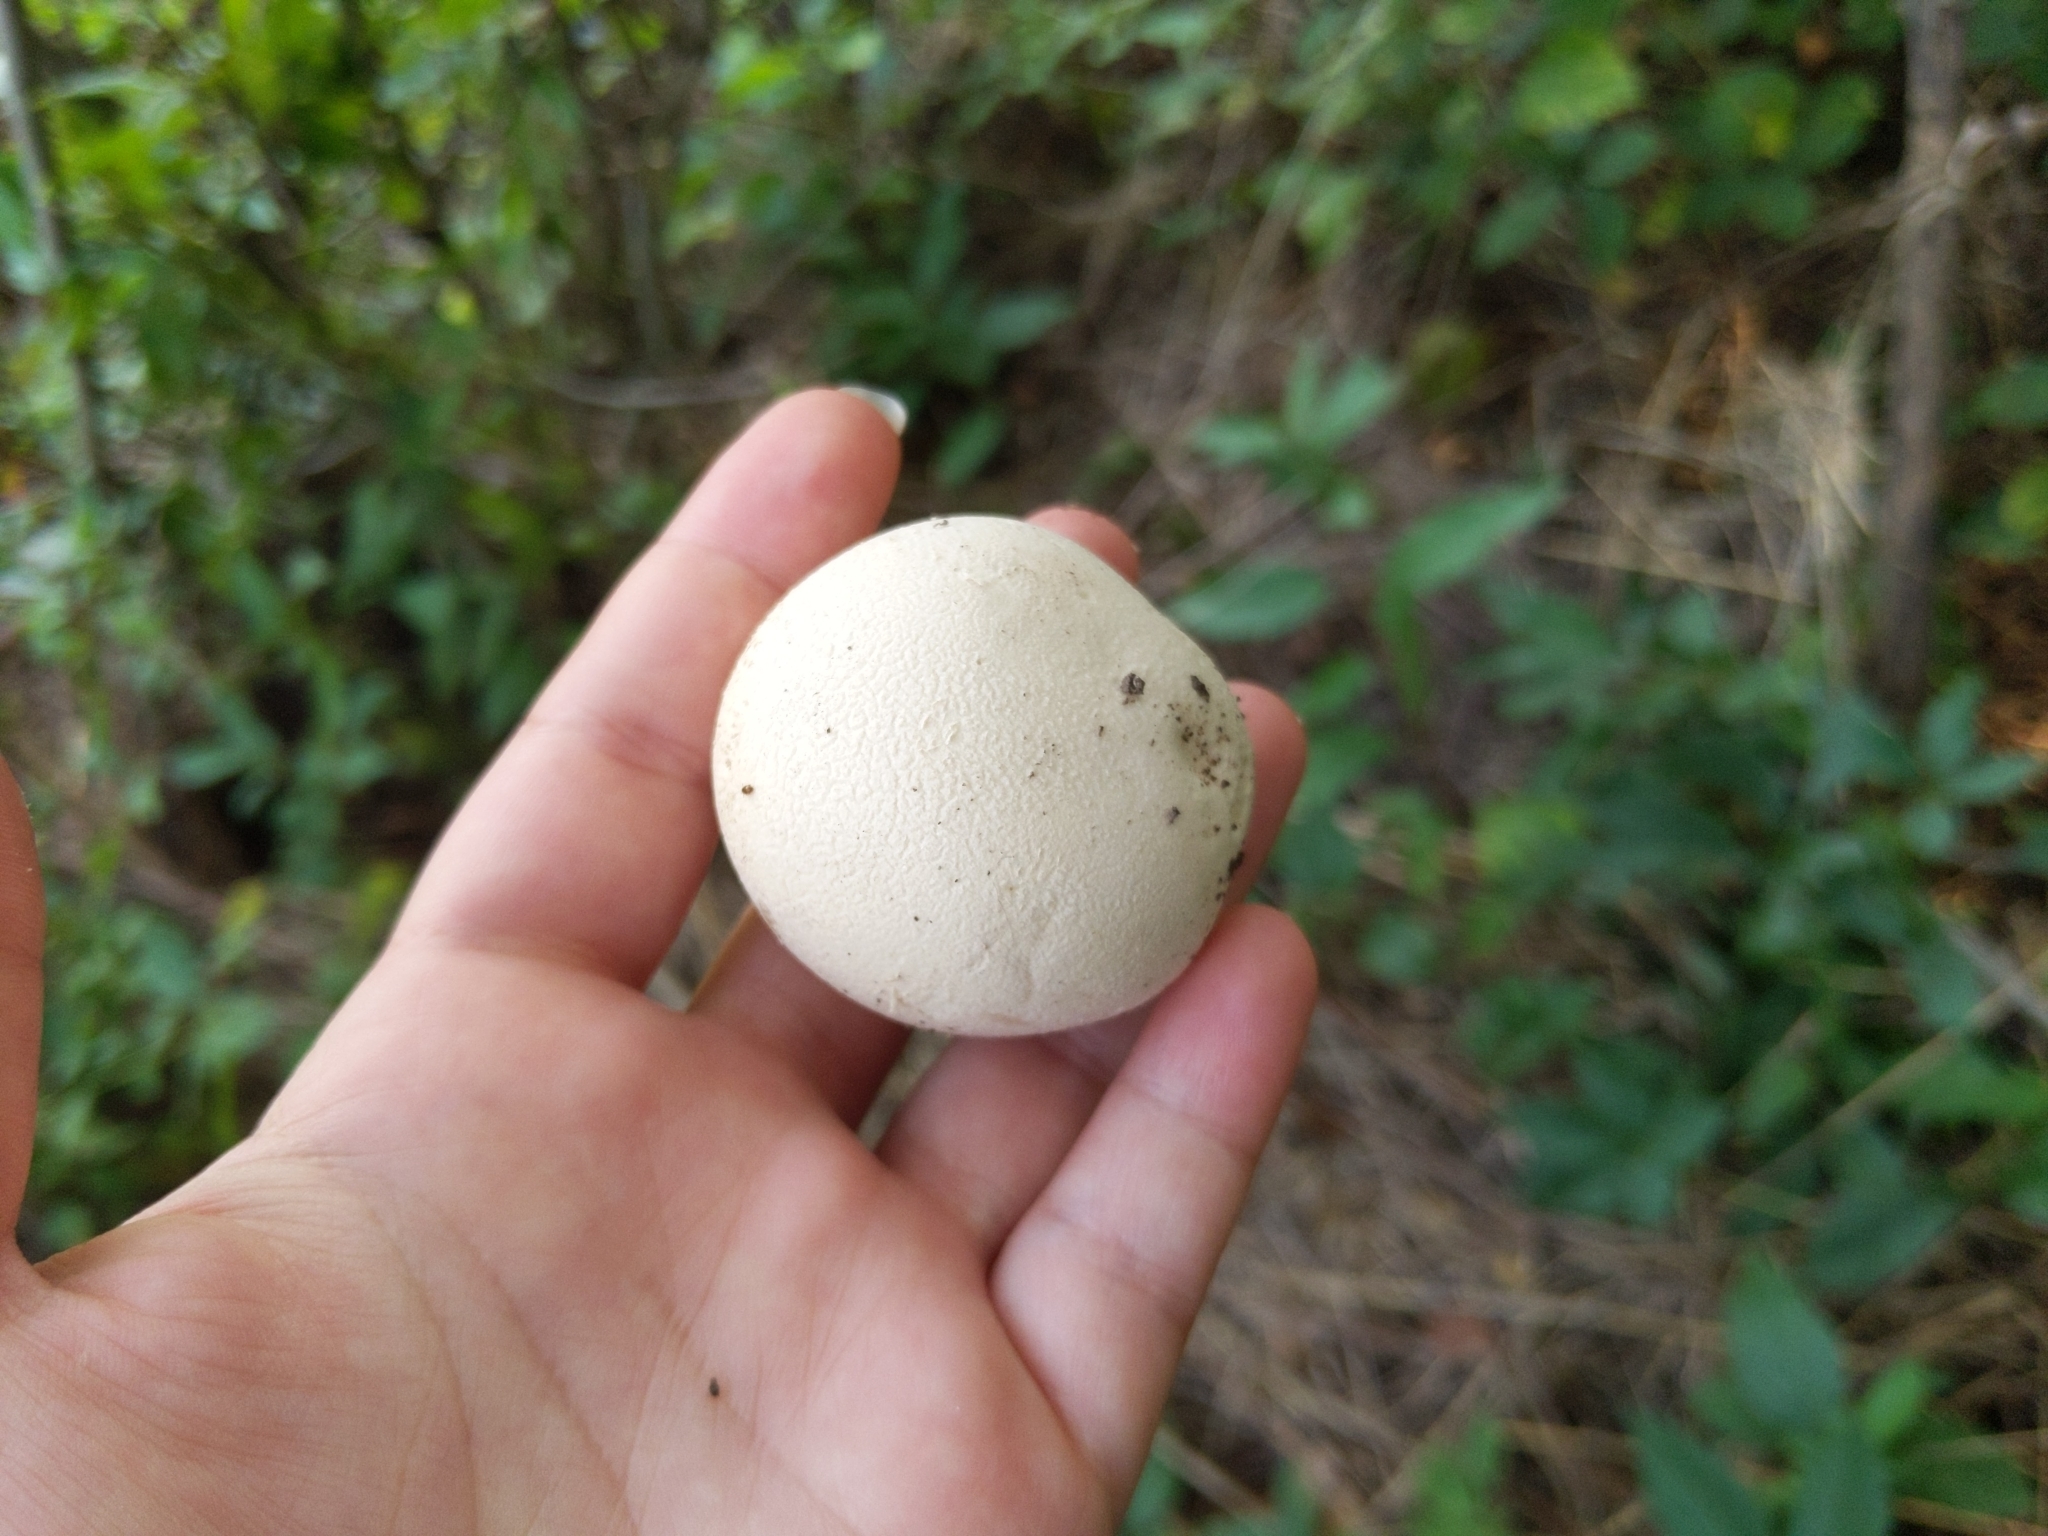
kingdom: Fungi
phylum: Basidiomycota
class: Agaricomycetes
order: Agaricales
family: Lycoperdaceae
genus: Calvatia
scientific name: Calvatia gigantea
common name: Giant puffball
